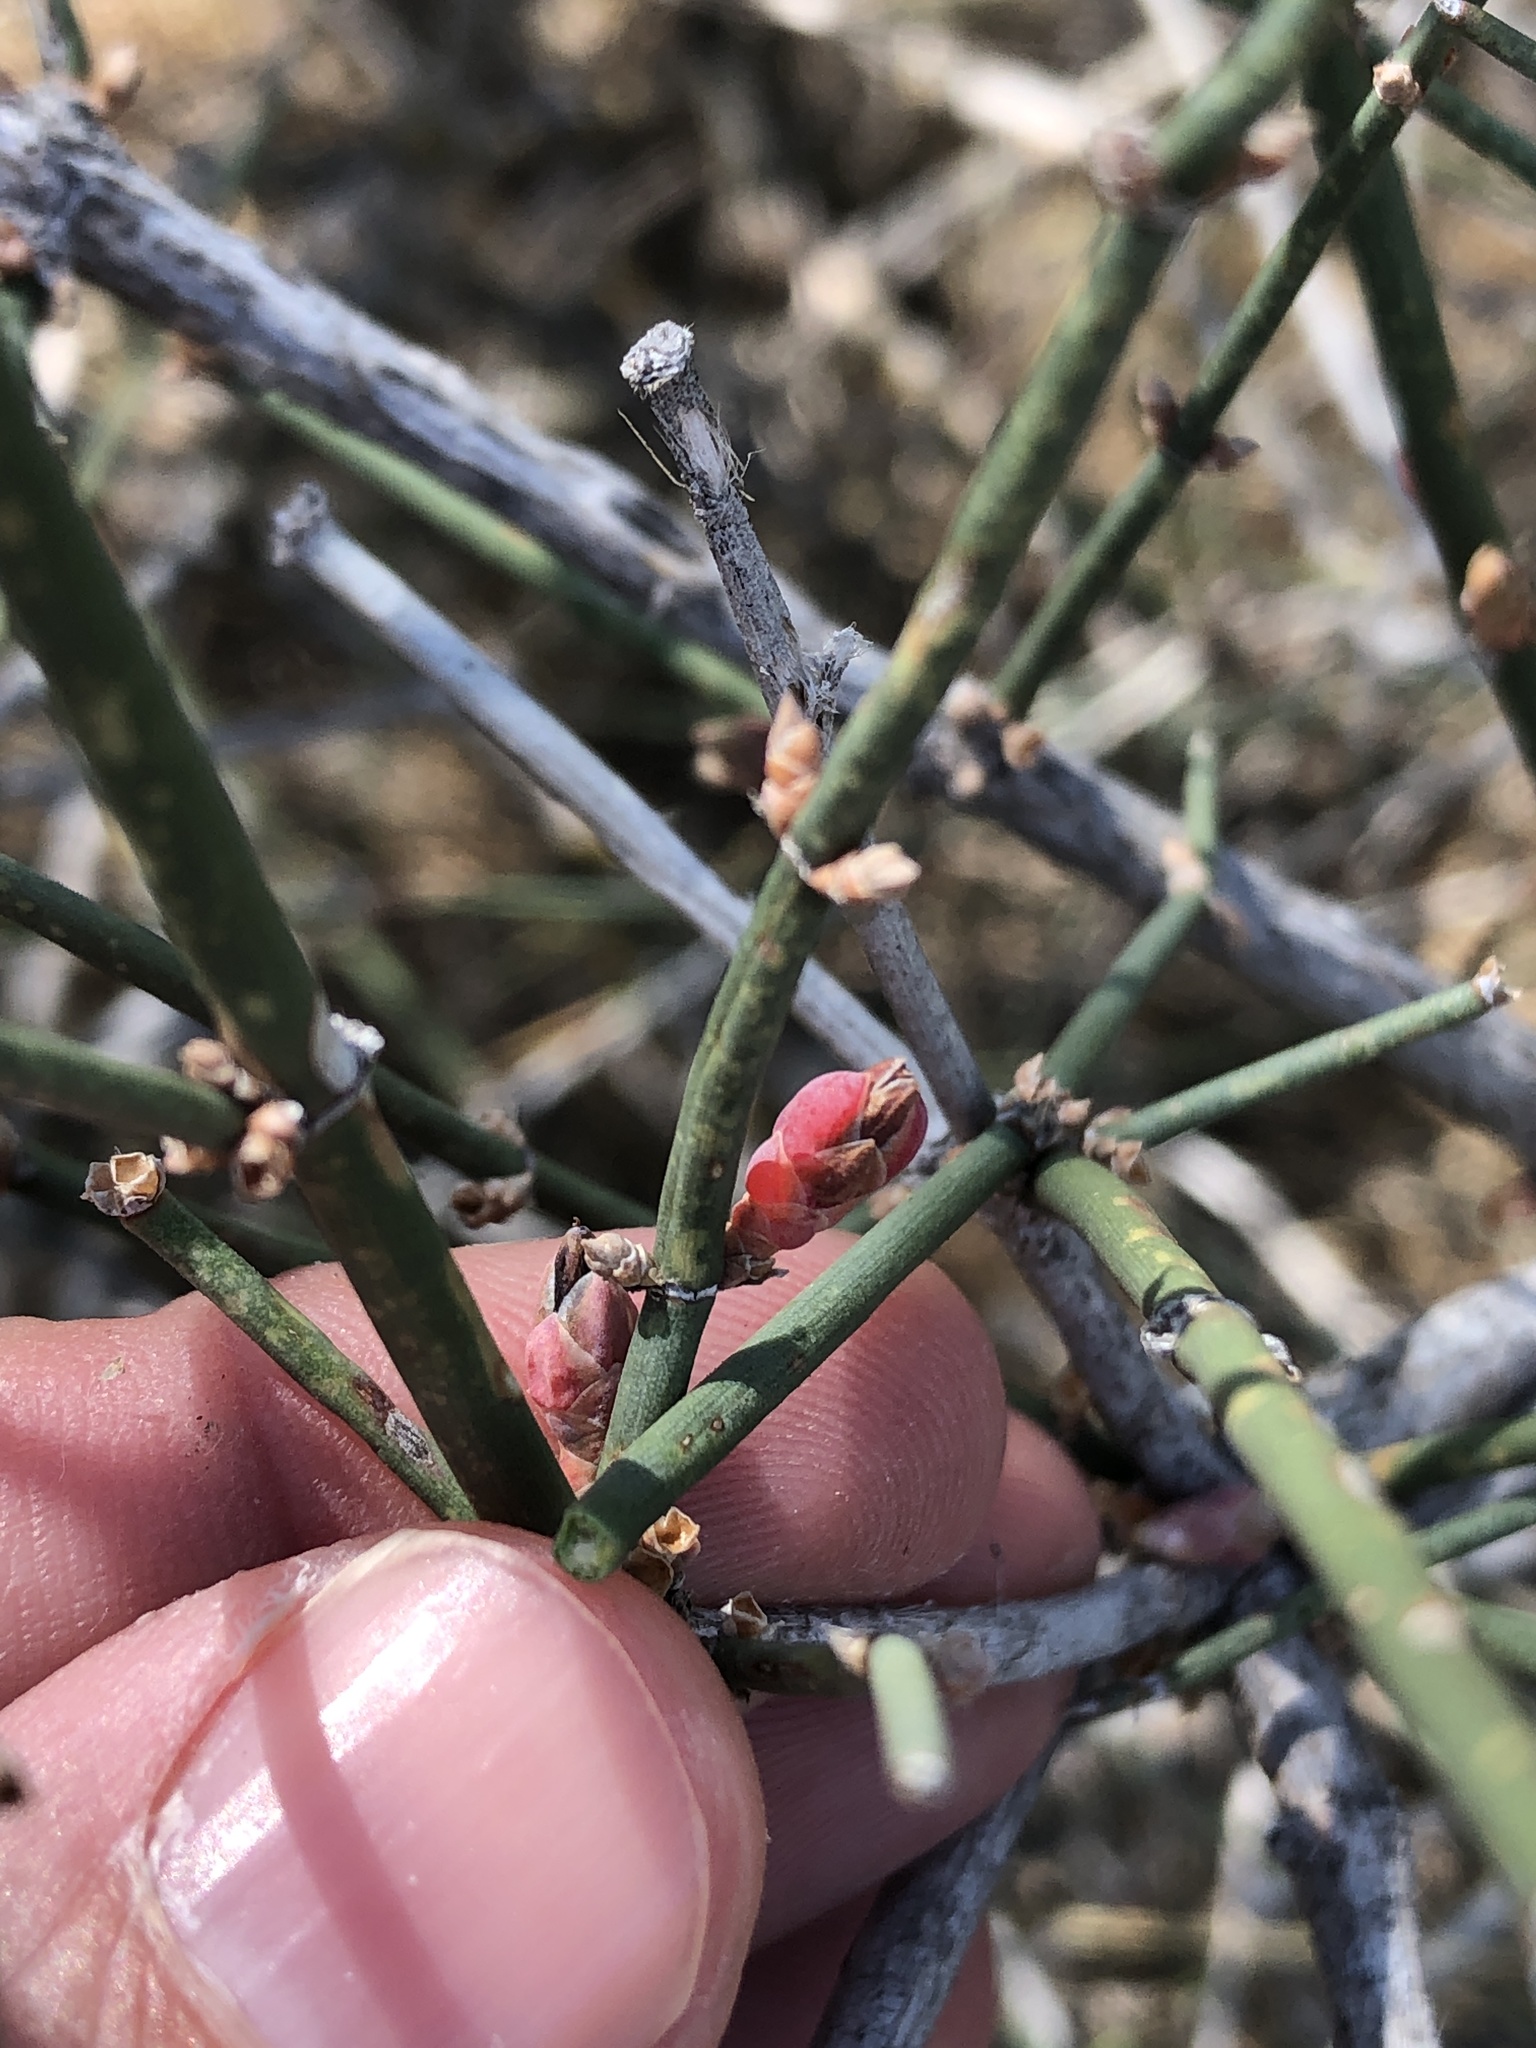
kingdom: Plantae
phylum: Tracheophyta
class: Gnetopsida
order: Ephedrales
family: Ephedraceae
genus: Ephedra
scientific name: Ephedra antisyphilitica
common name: Clipweed
